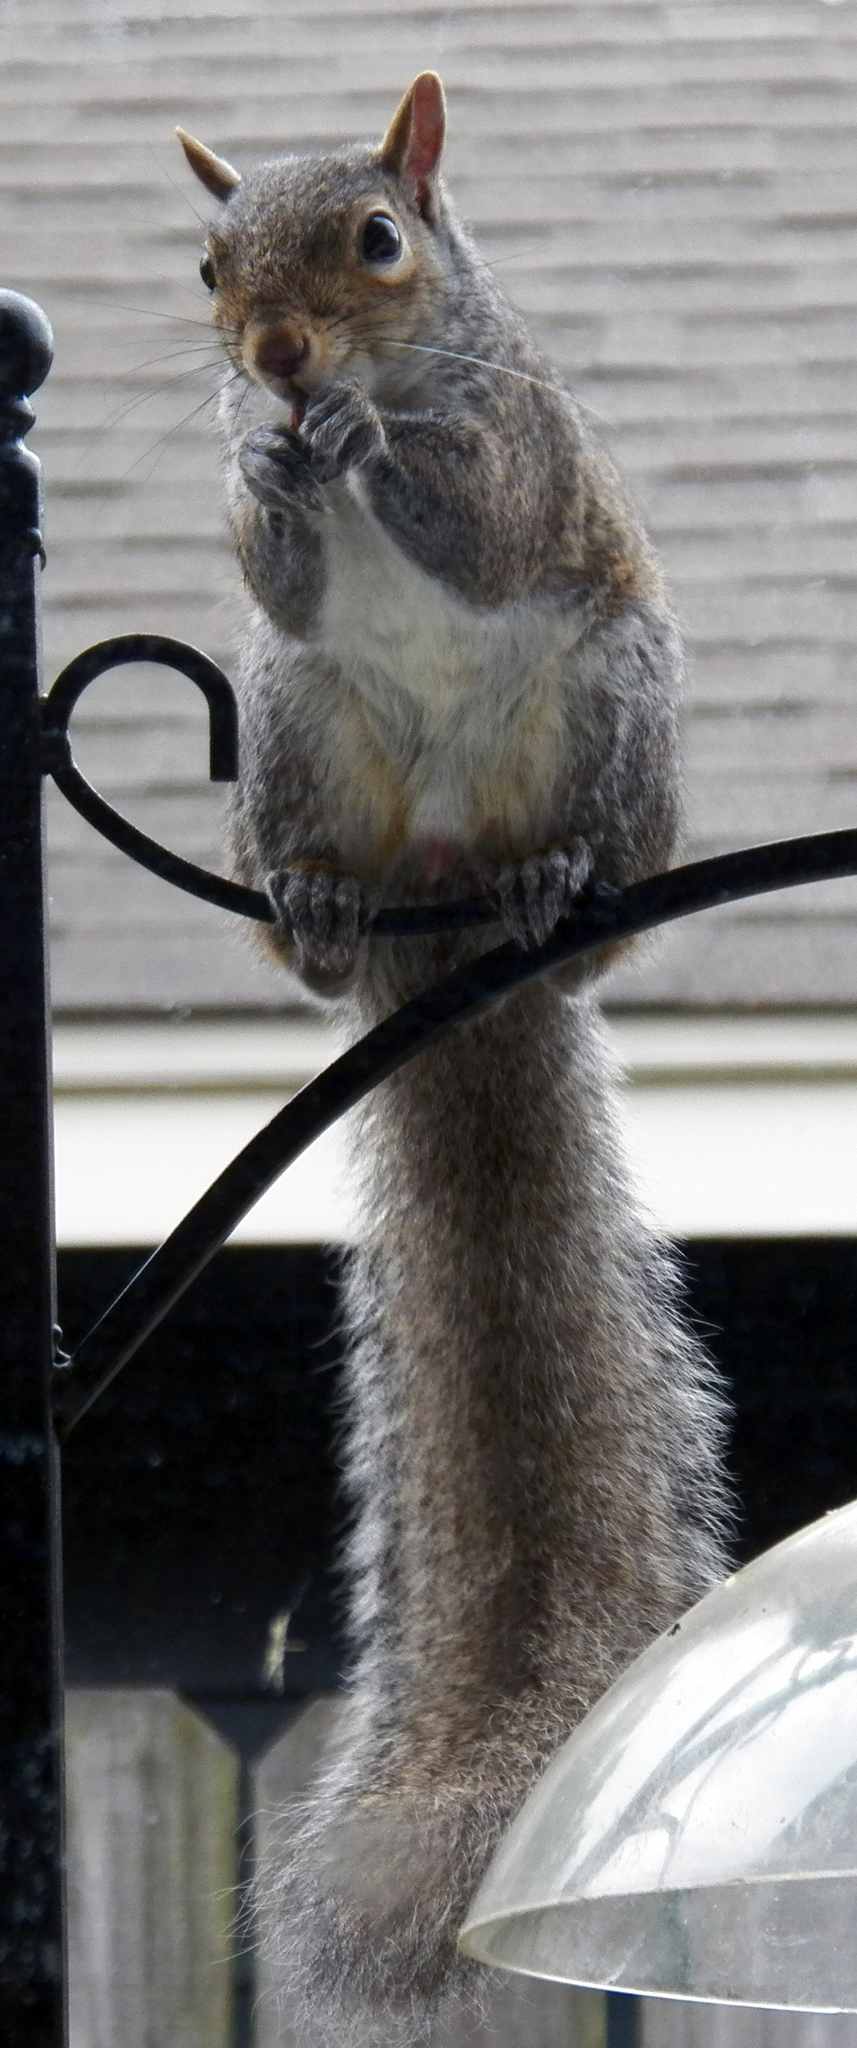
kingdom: Animalia
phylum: Chordata
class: Mammalia
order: Rodentia
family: Sciuridae
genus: Sciurus
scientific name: Sciurus carolinensis
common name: Eastern gray squirrel
